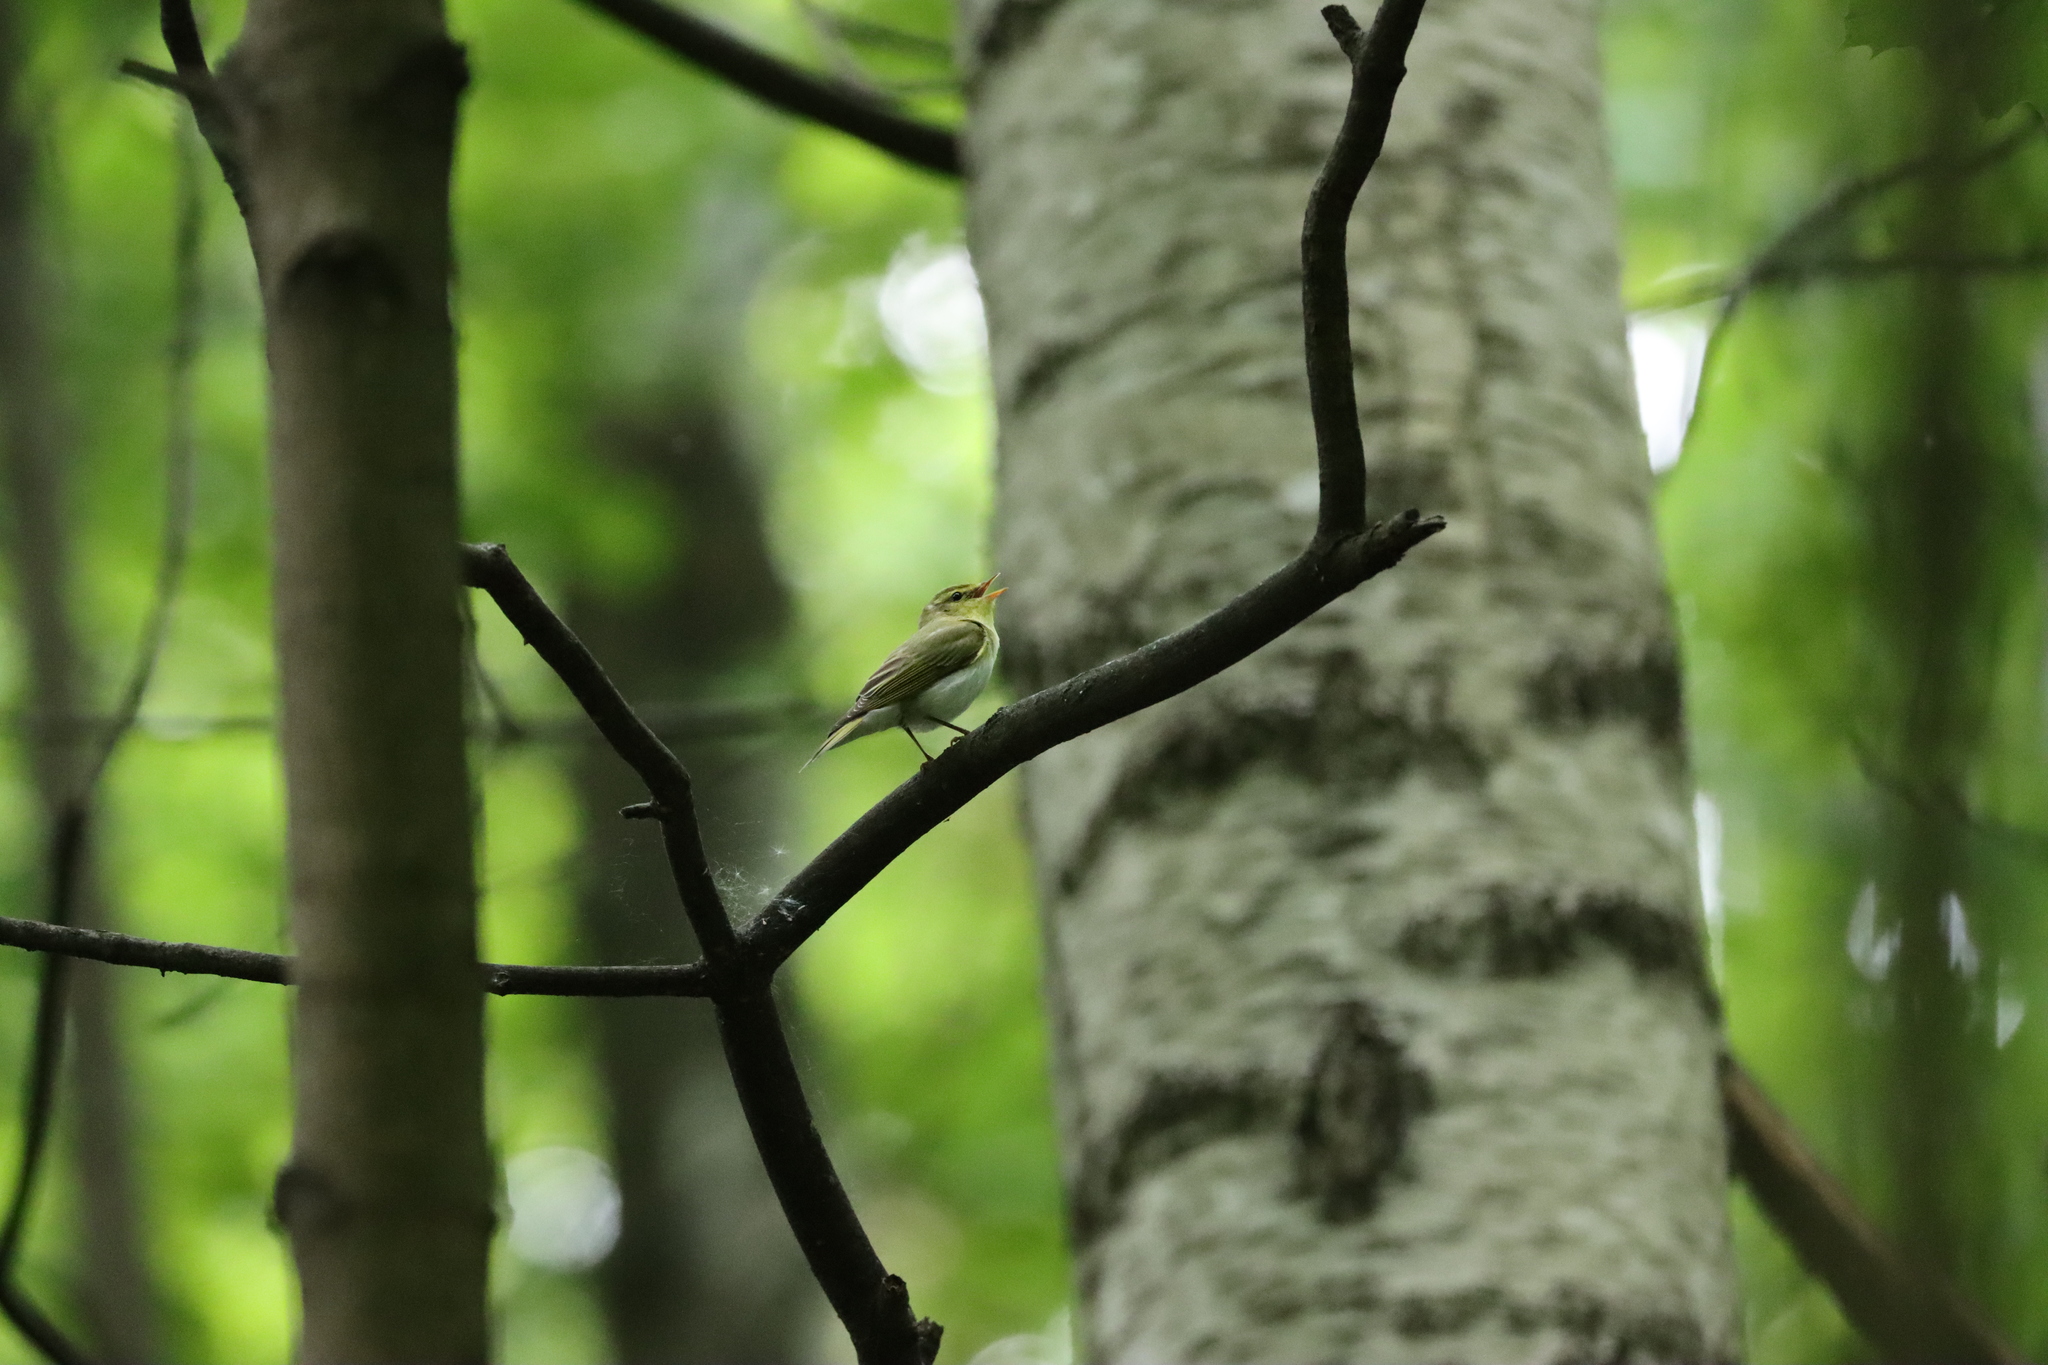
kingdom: Animalia
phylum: Chordata
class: Aves
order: Passeriformes
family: Phylloscopidae
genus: Phylloscopus
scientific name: Phylloscopus sibillatrix
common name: Wood warbler
